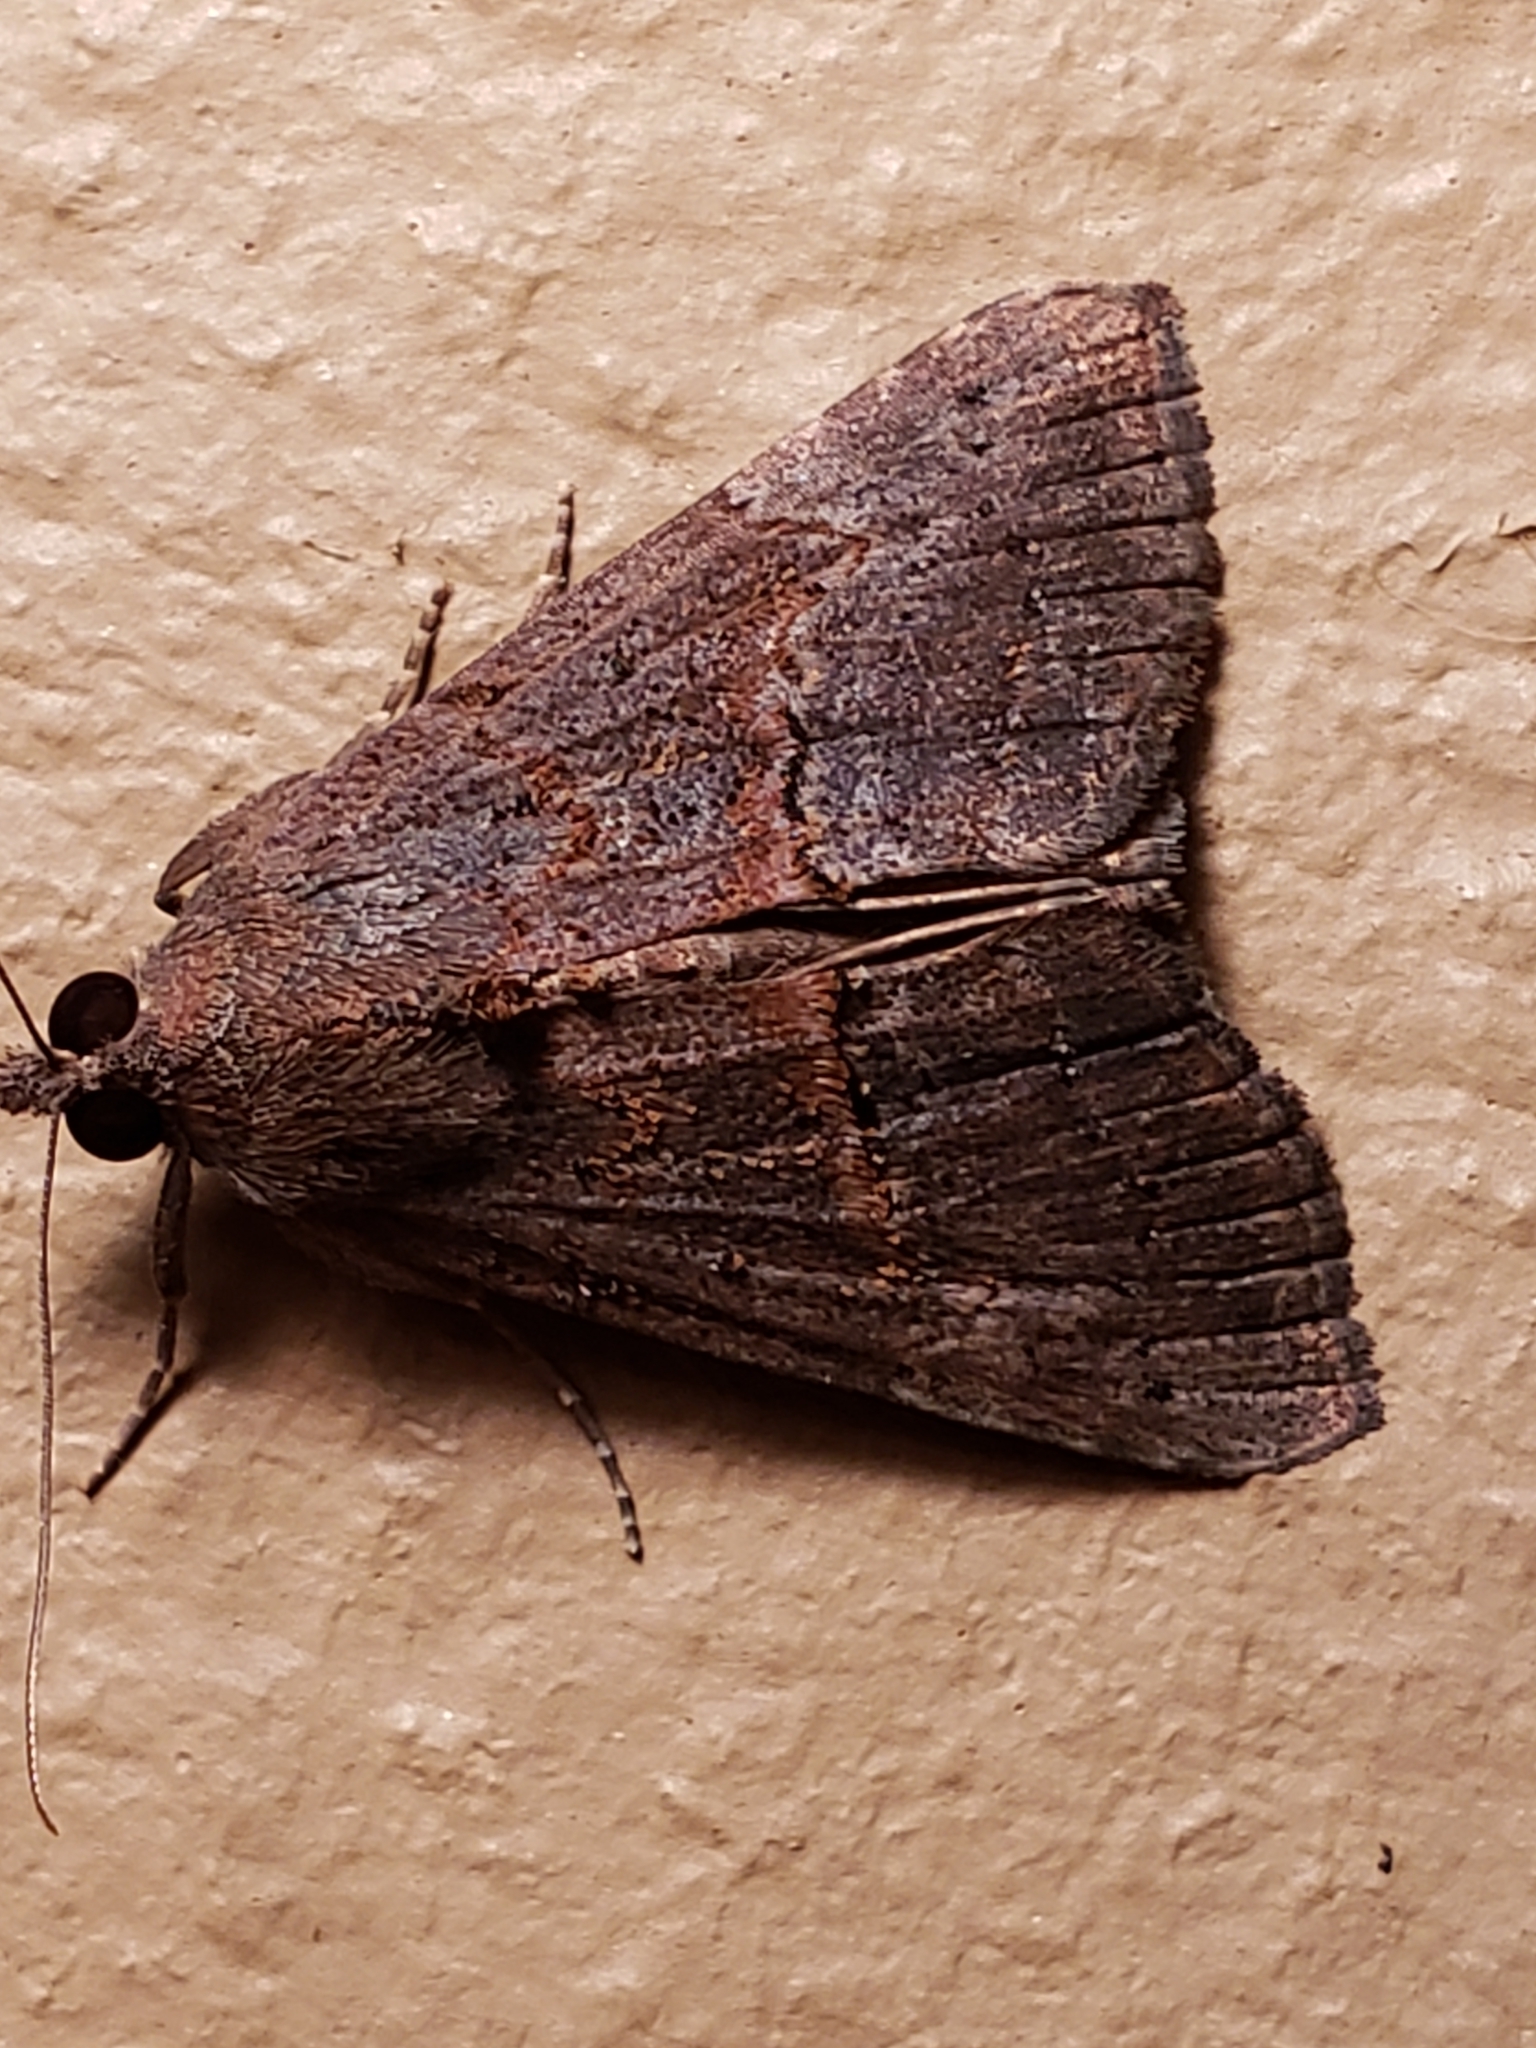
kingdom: Animalia
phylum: Arthropoda
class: Insecta
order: Lepidoptera
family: Erebidae
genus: Hypena
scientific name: Hypena scabra
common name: Green cloverworm
